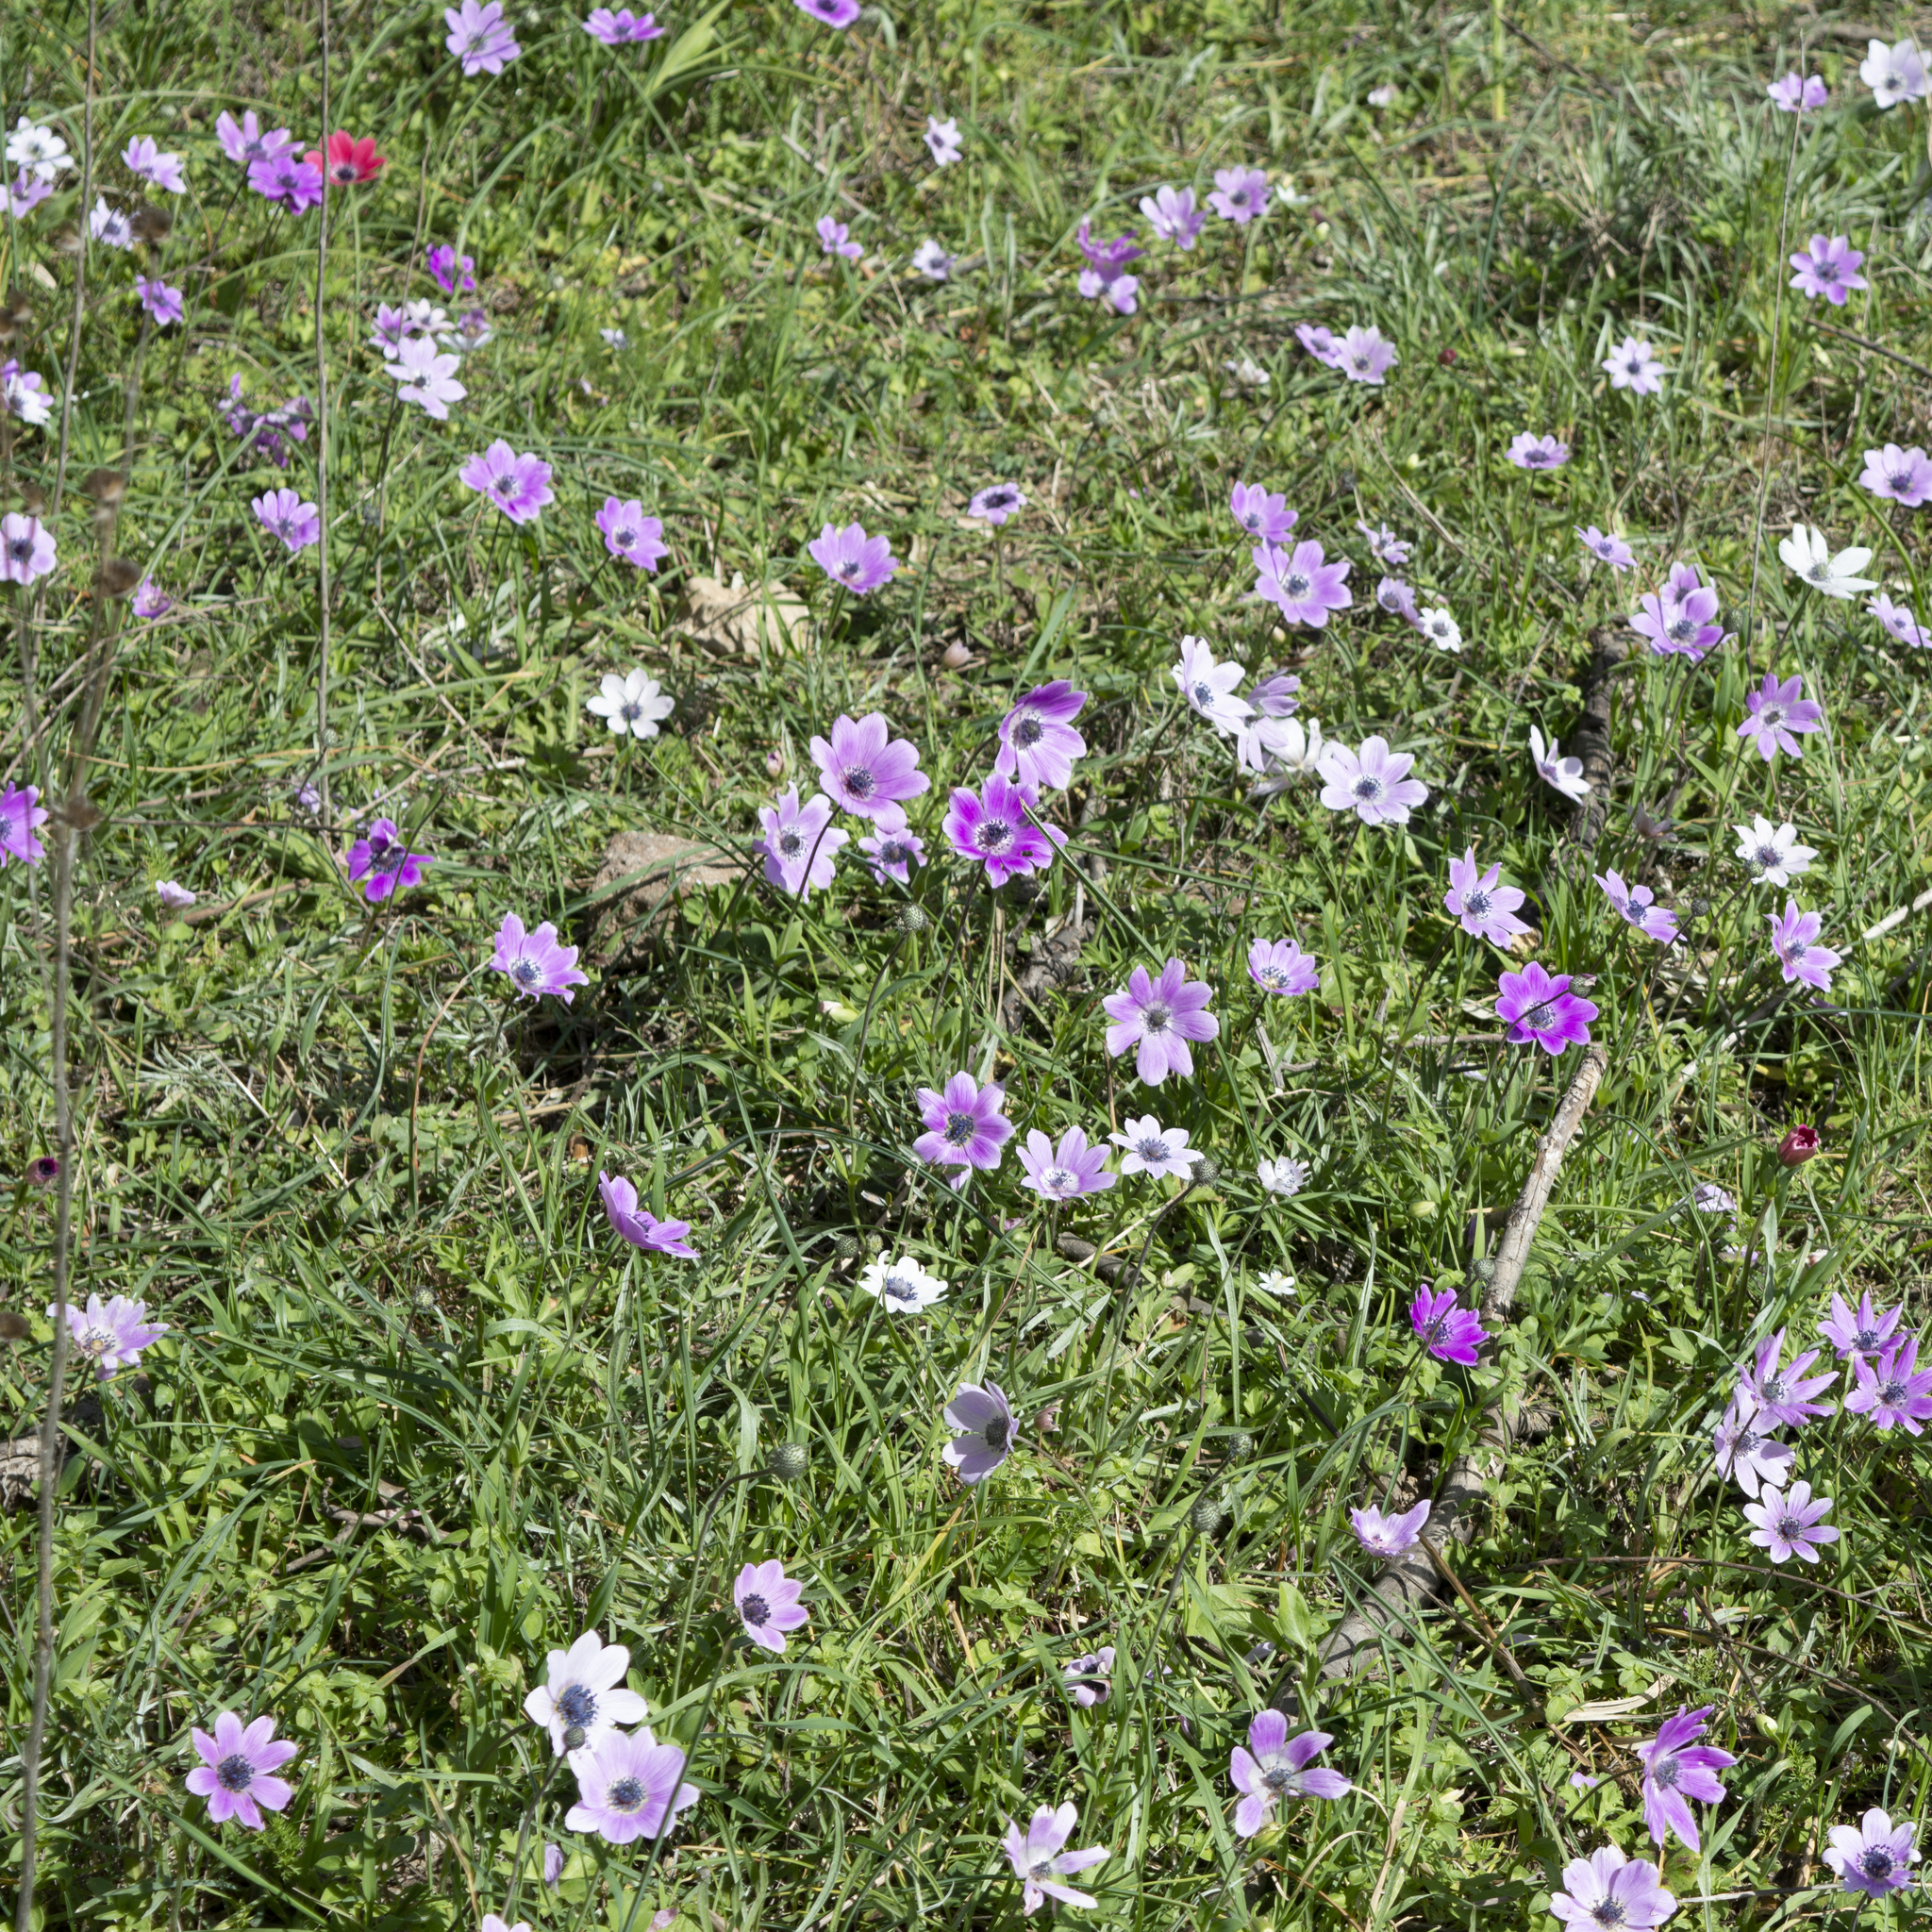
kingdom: Plantae
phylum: Tracheophyta
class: Magnoliopsida
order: Ranunculales
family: Ranunculaceae
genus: Anemone
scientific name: Anemone coronaria
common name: Poppy anemone
